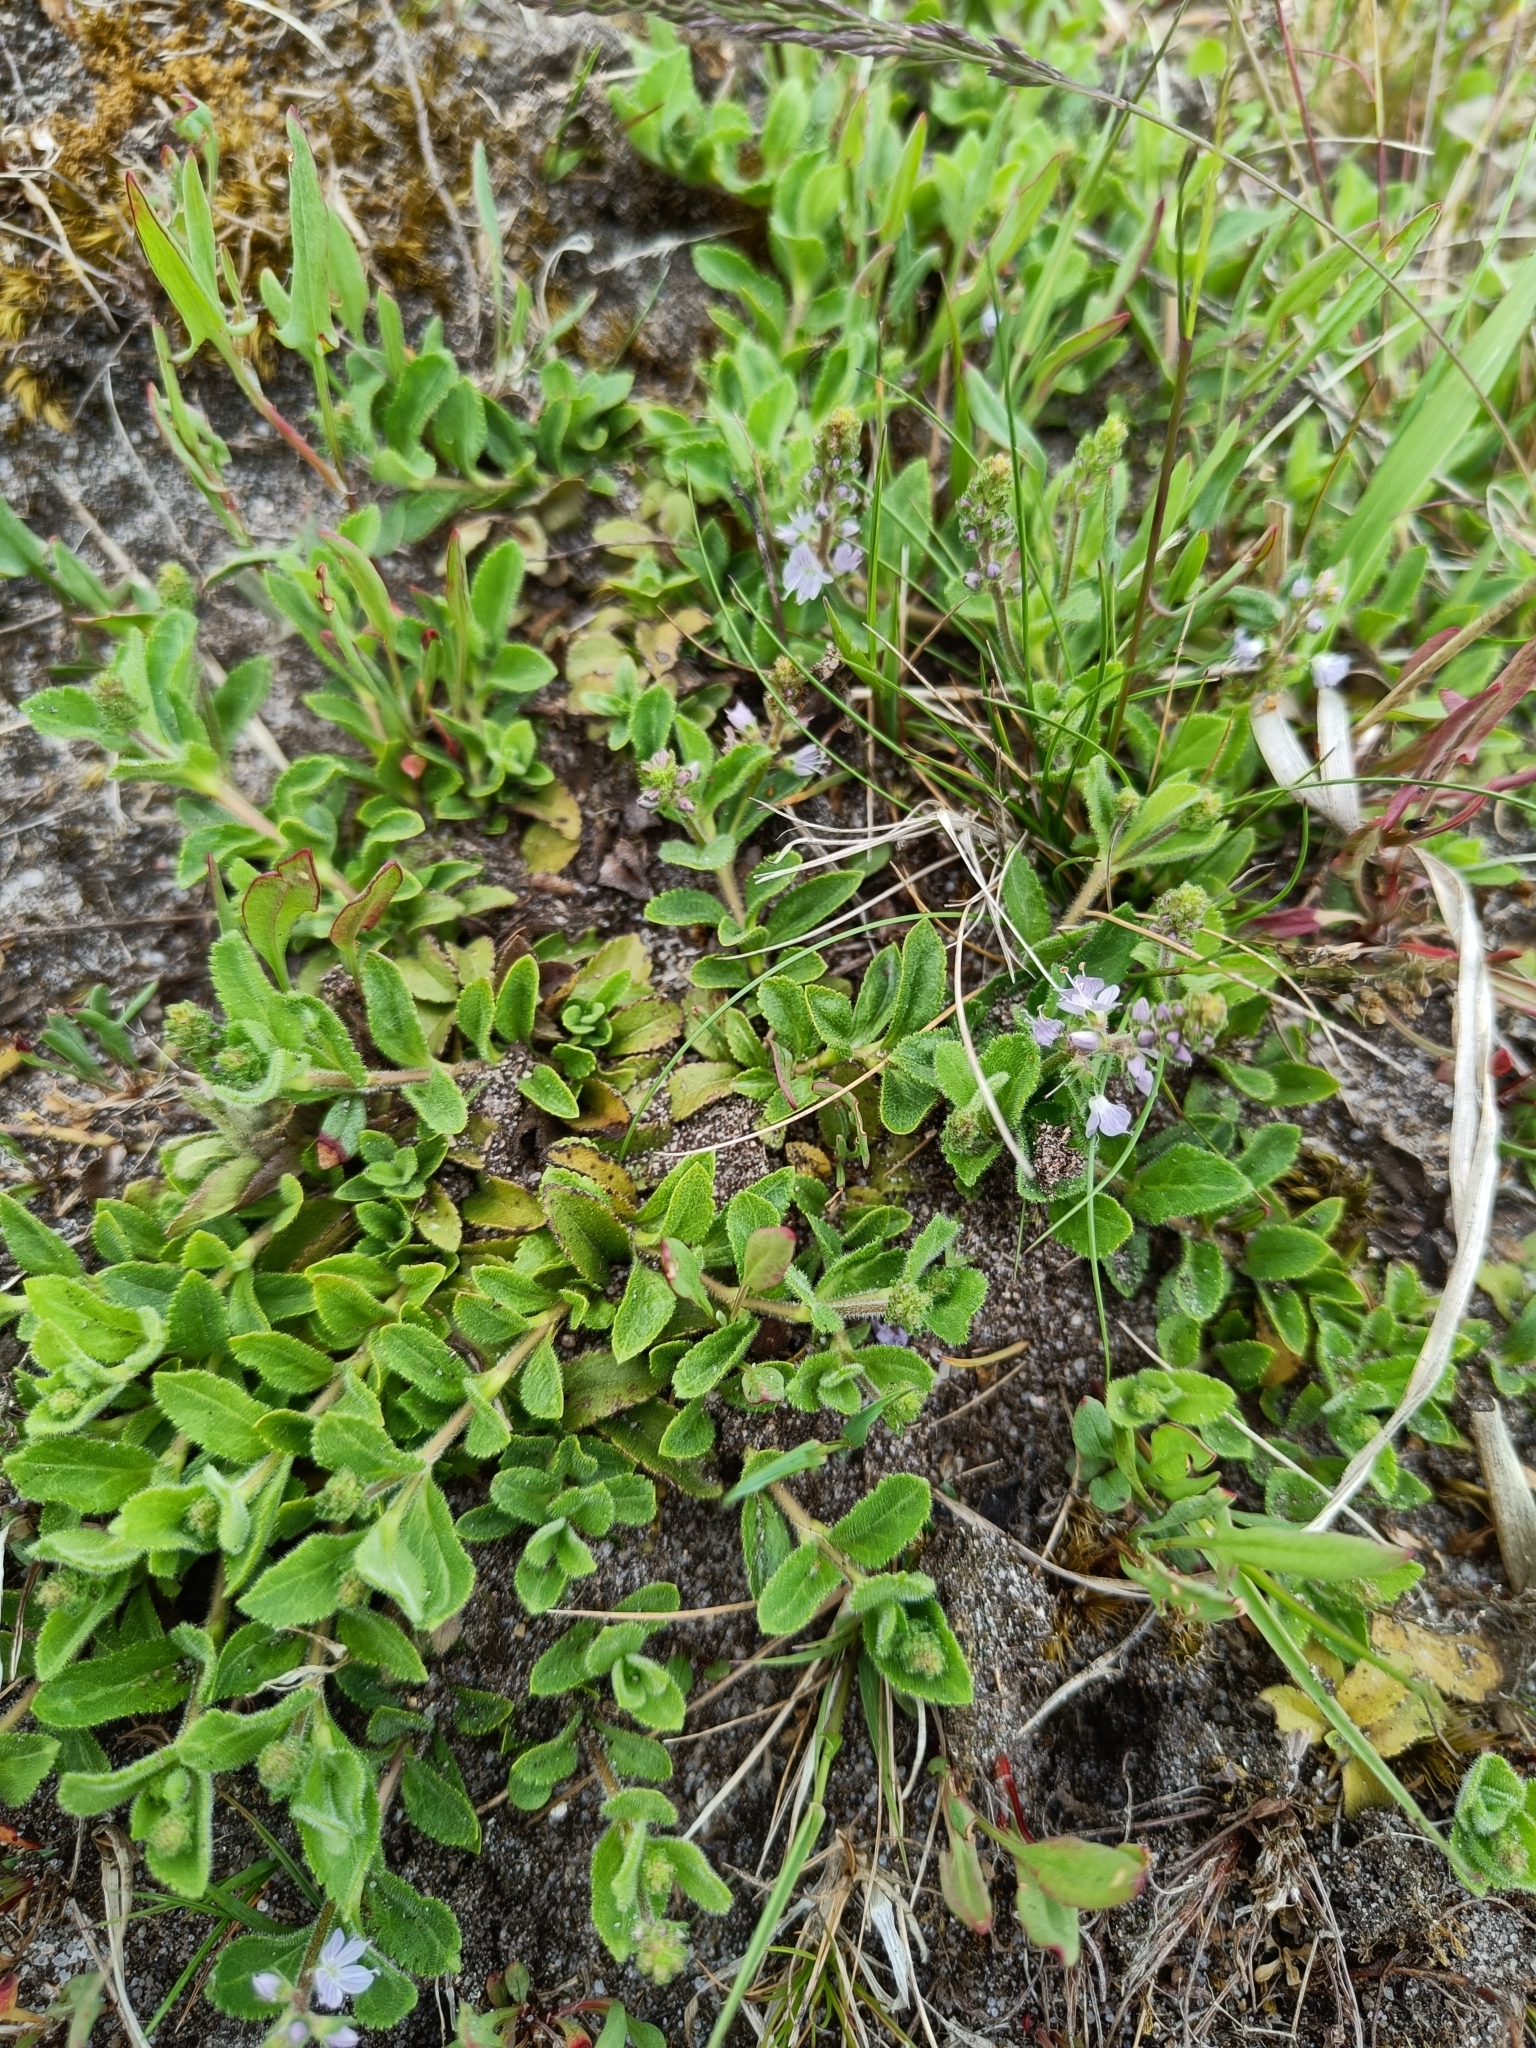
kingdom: Plantae
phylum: Tracheophyta
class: Magnoliopsida
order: Lamiales
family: Plantaginaceae
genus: Veronica
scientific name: Veronica officinalis
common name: Common speedwell
